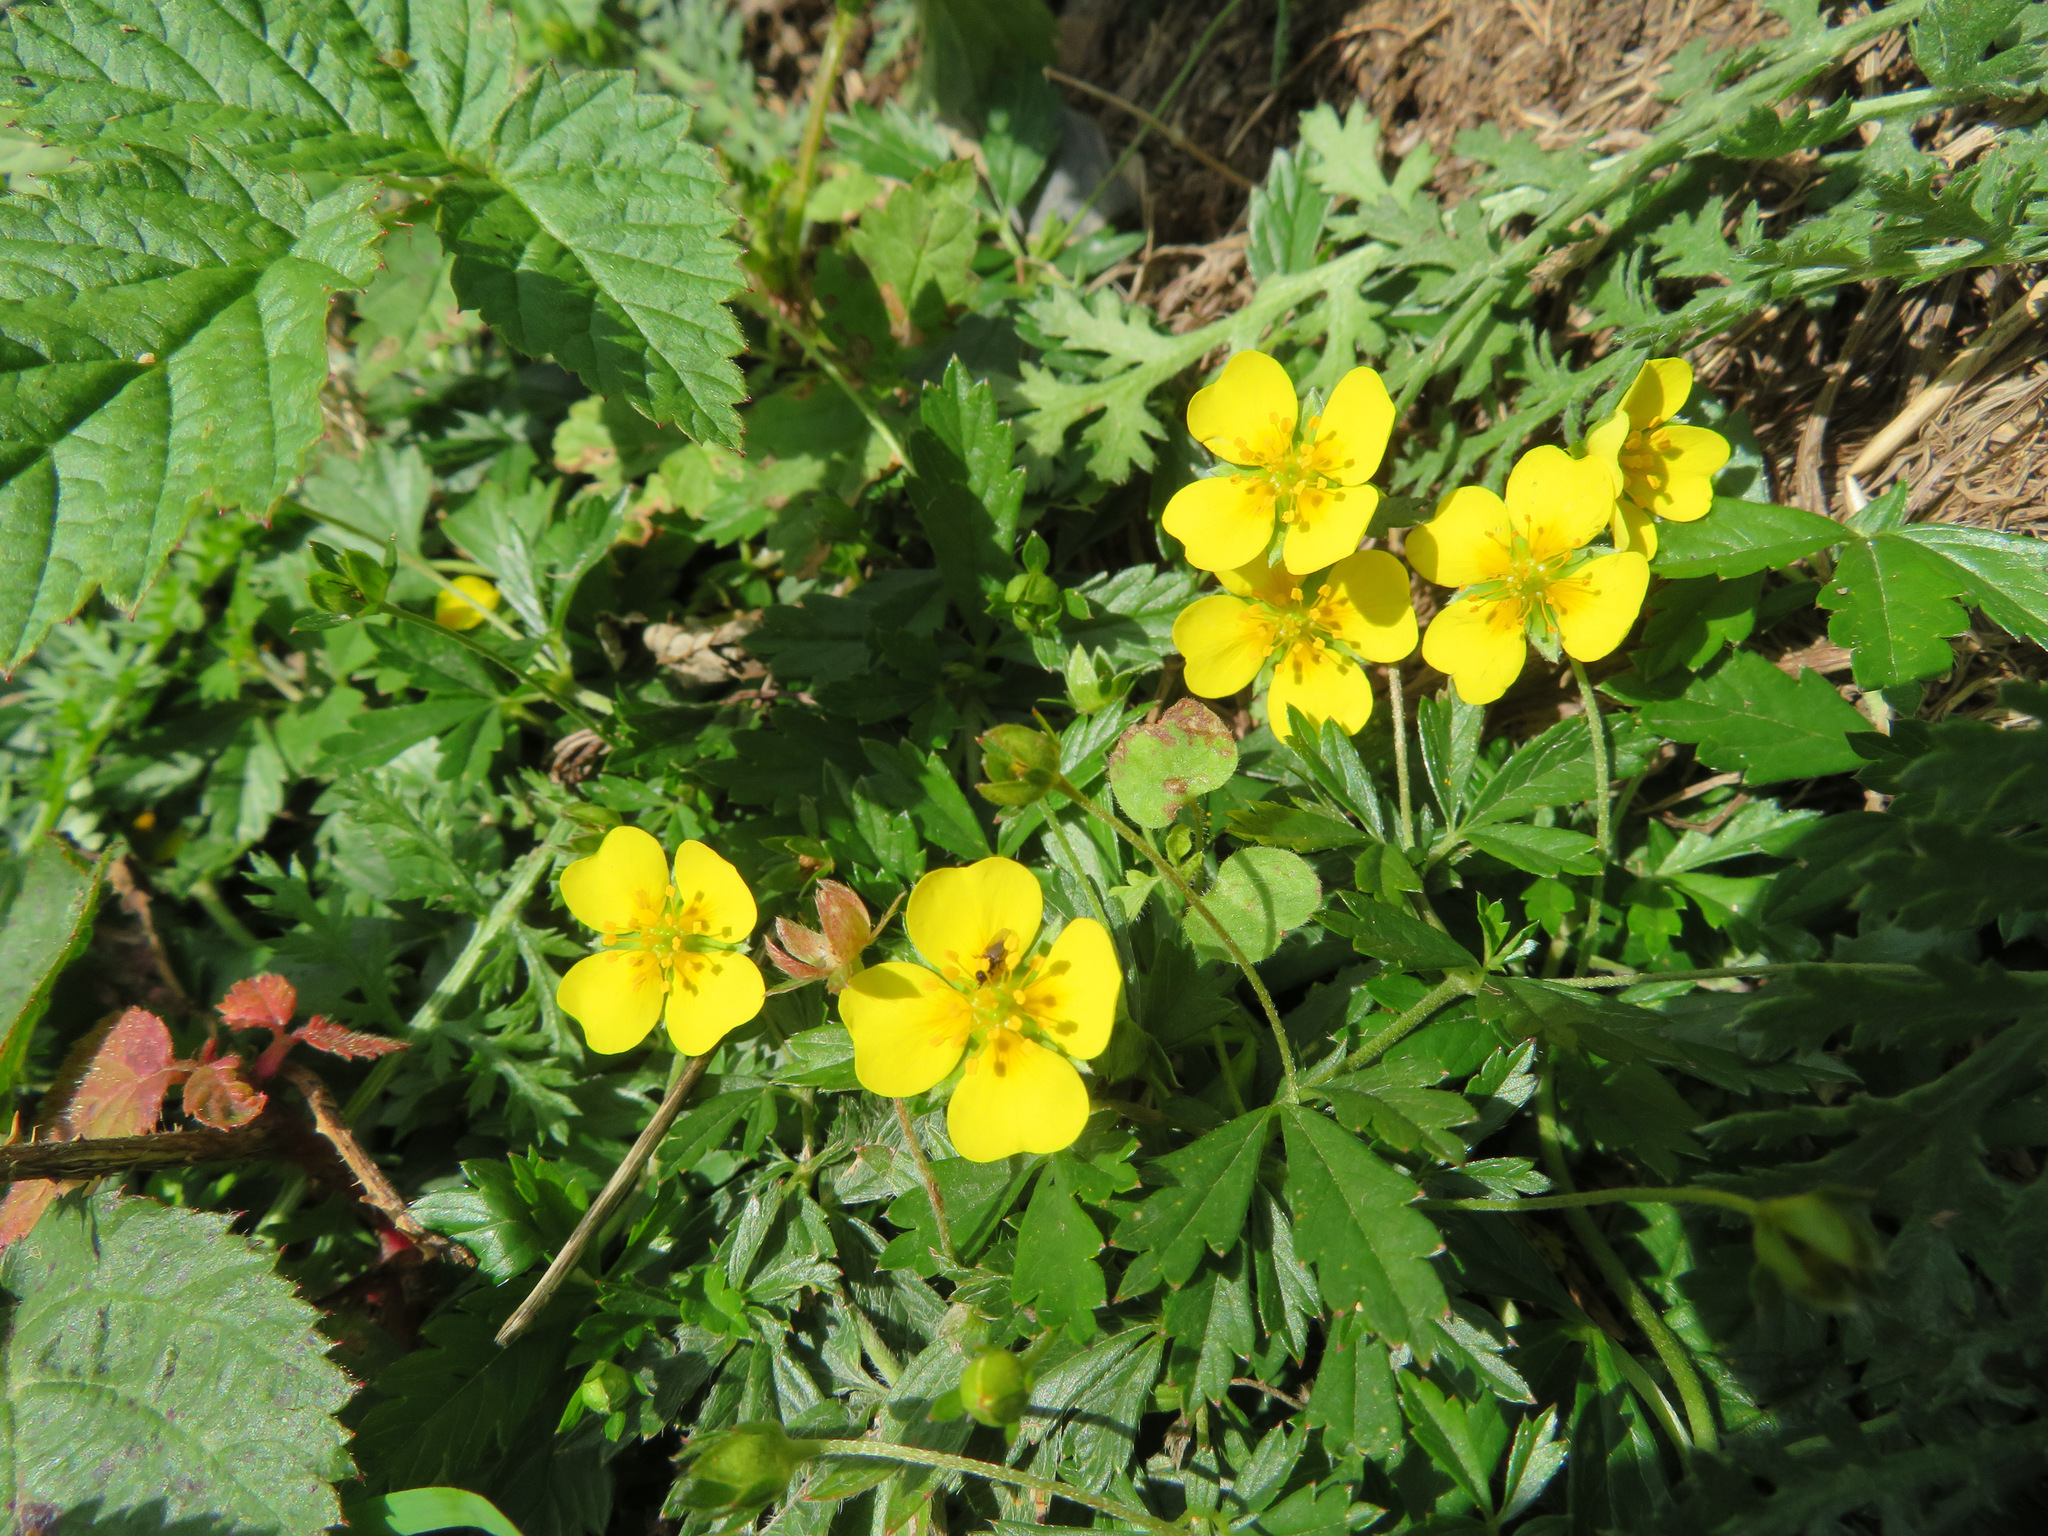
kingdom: Plantae
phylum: Tracheophyta
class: Magnoliopsida
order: Rosales
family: Rosaceae
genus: Potentilla
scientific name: Potentilla erecta
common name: Tormentil
